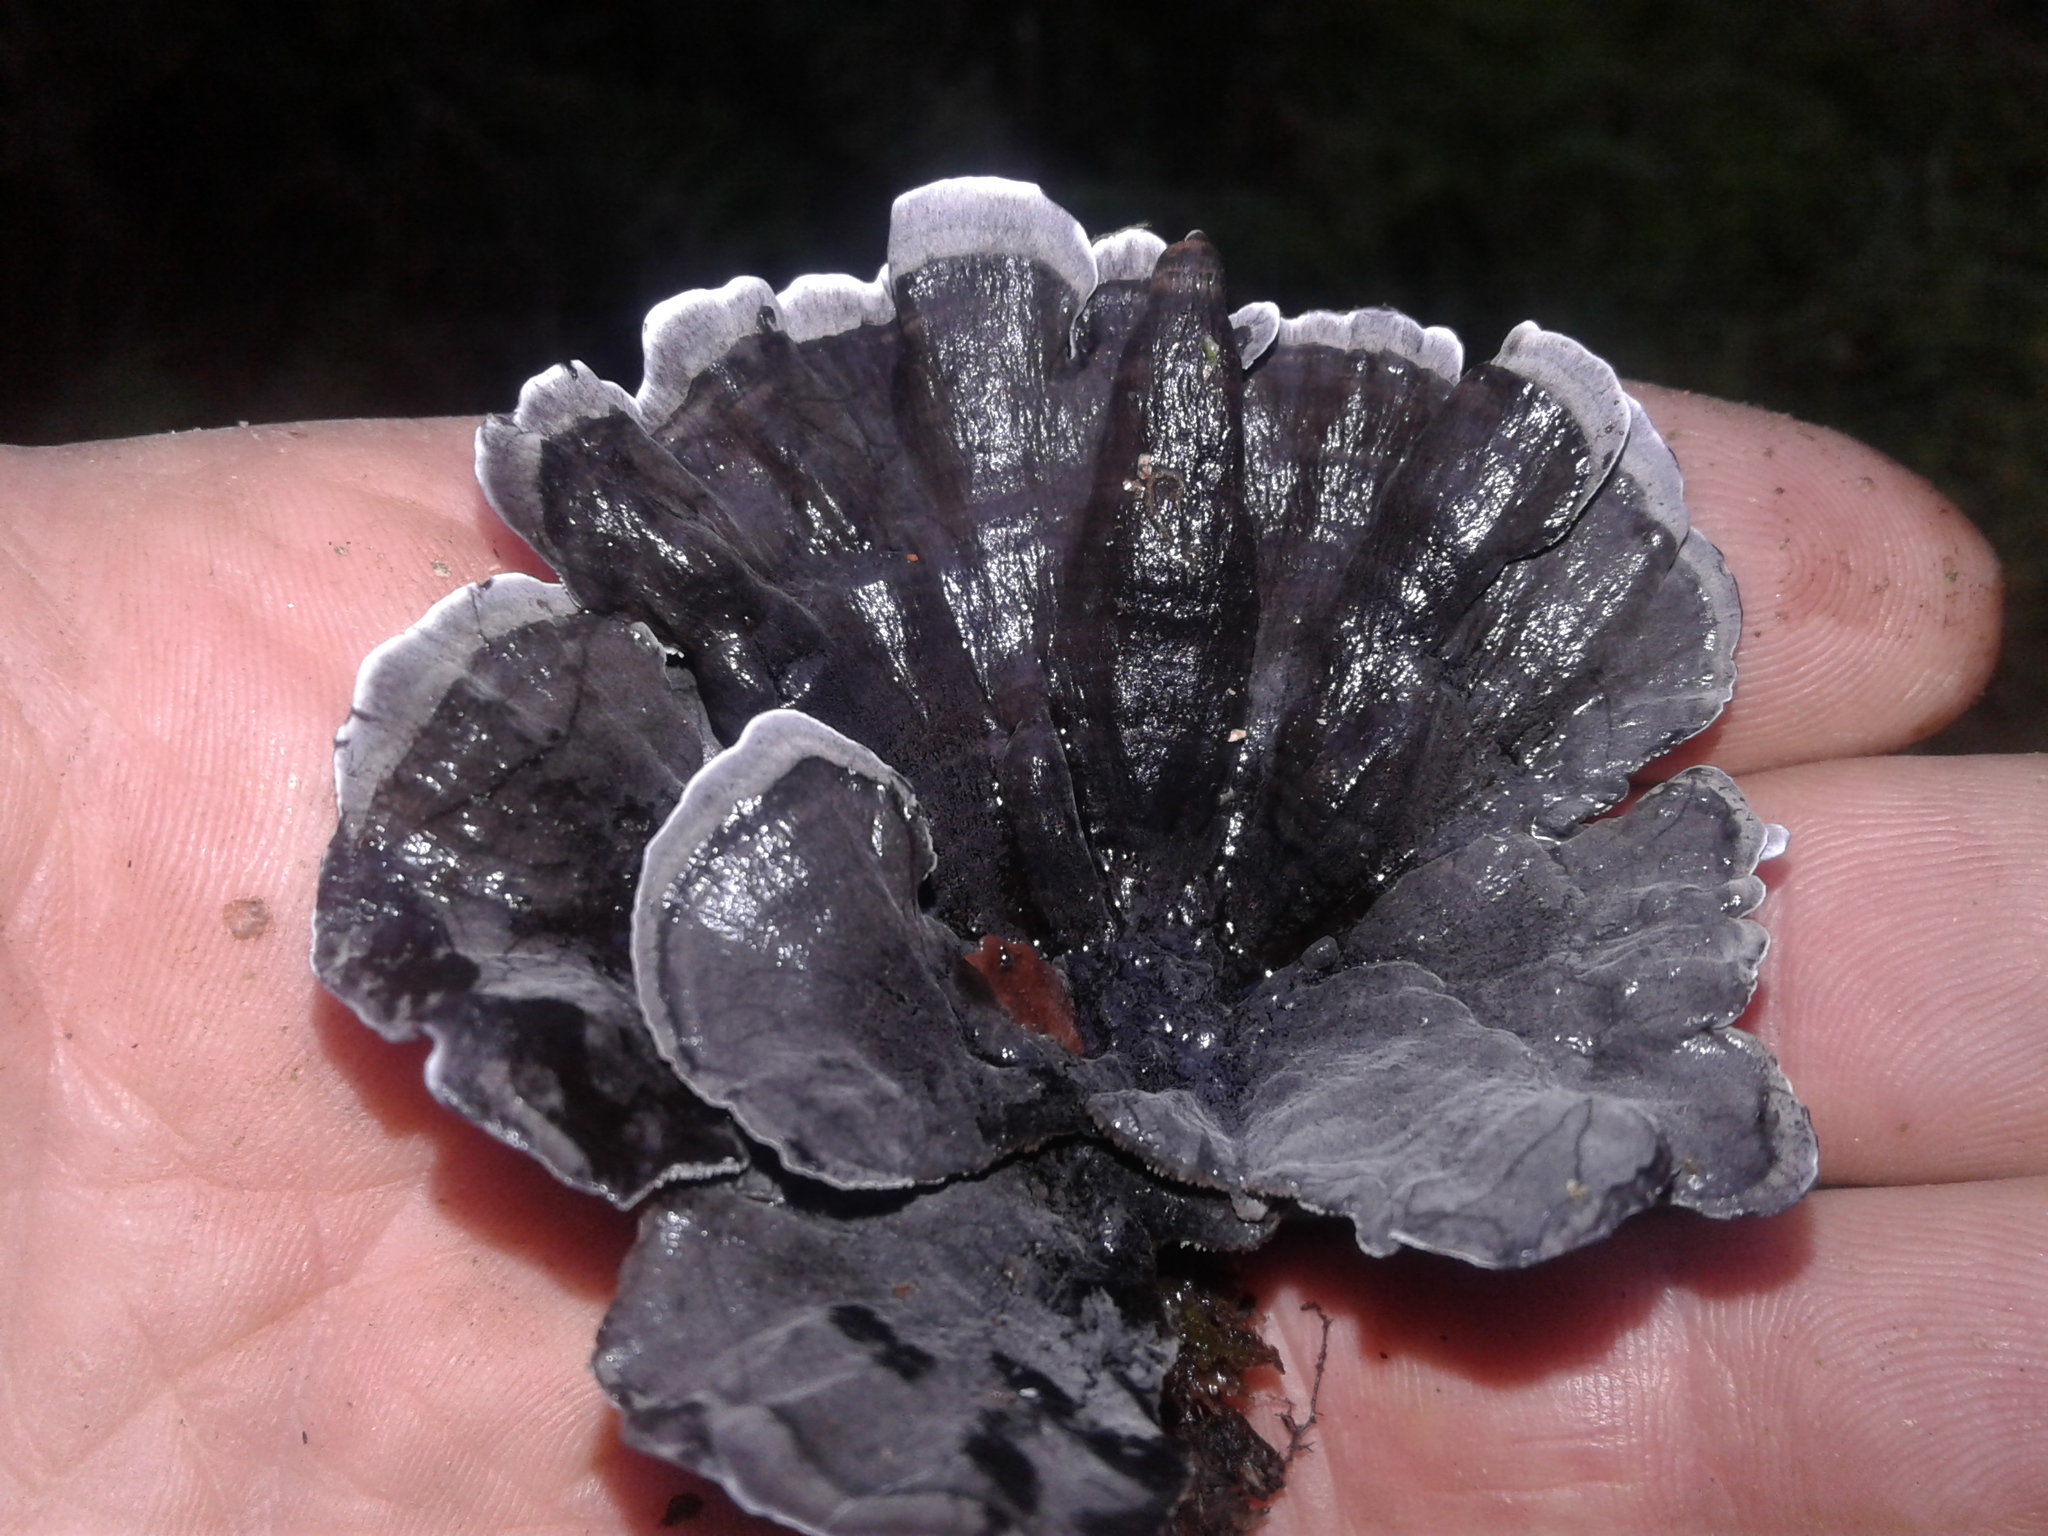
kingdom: Fungi
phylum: Basidiomycota
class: Agaricomycetes
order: Thelephorales
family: Thelephoraceae
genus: Phellodon
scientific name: Phellodon sinclairii
